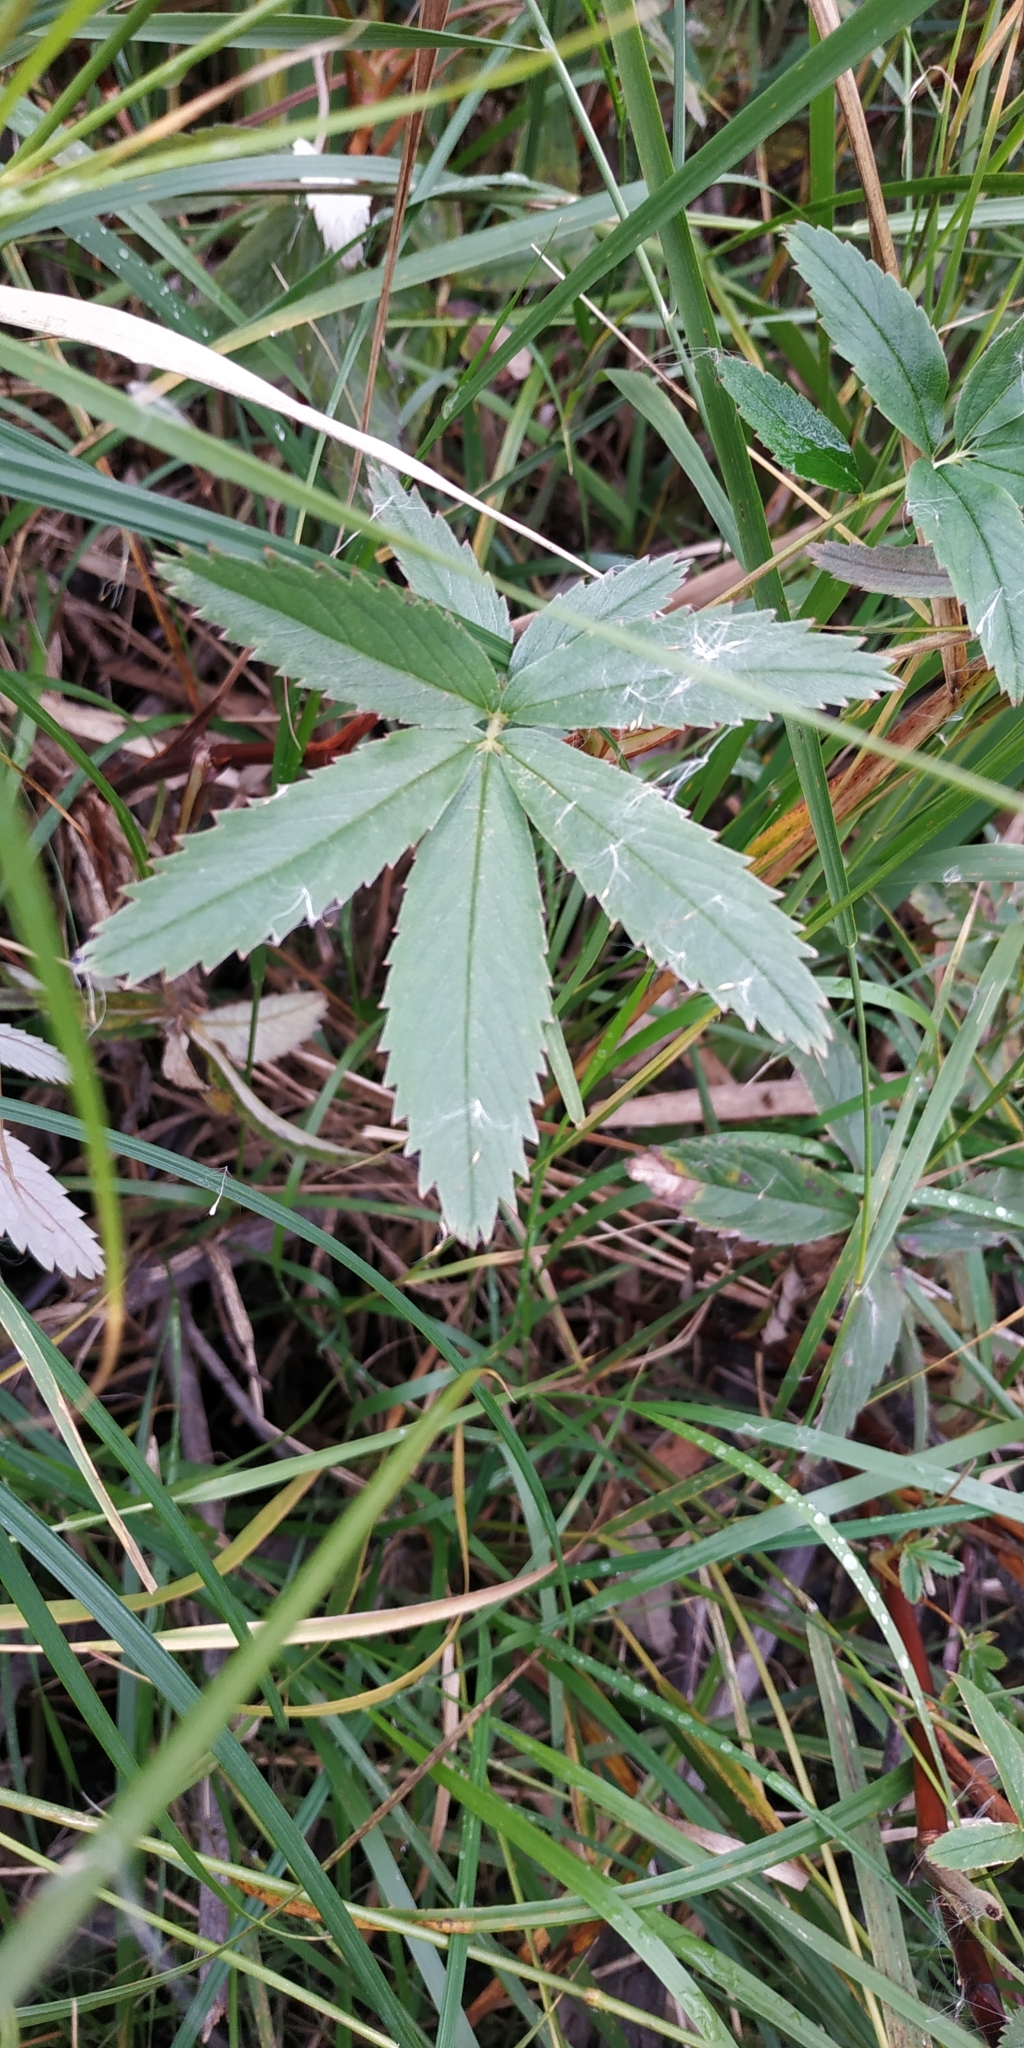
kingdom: Plantae
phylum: Tracheophyta
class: Magnoliopsida
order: Rosales
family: Rosaceae
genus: Comarum
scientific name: Comarum palustre
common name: Marsh cinquefoil
